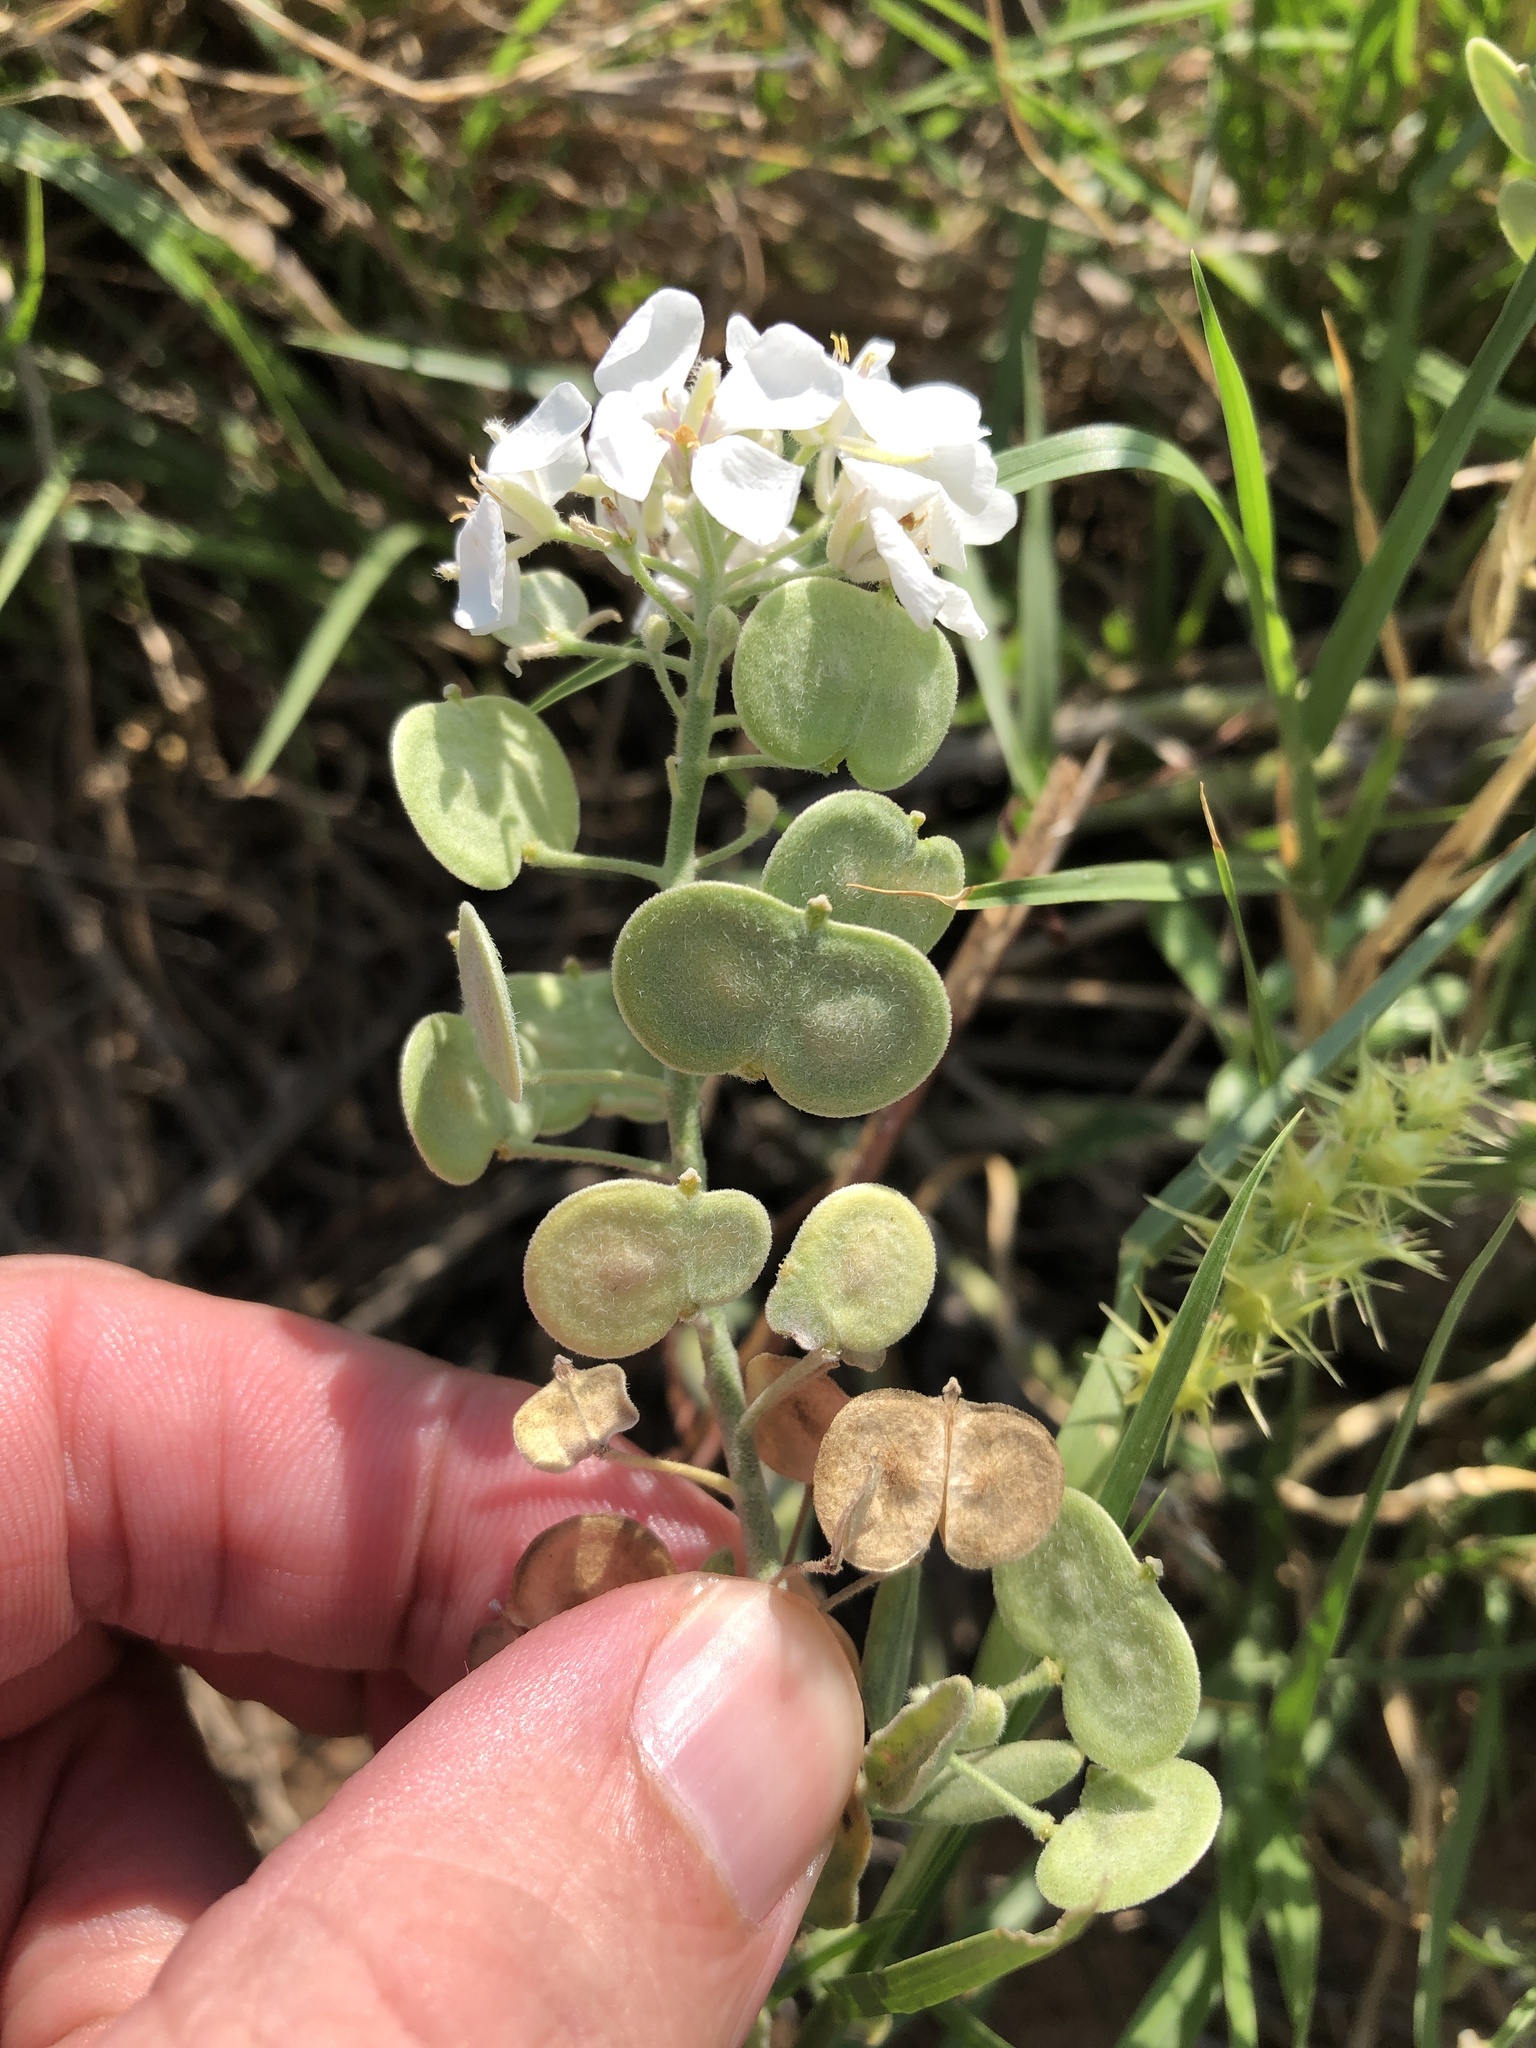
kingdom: Plantae
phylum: Tracheophyta
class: Magnoliopsida
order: Brassicales
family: Brassicaceae
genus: Dimorphocarpa
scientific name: Dimorphocarpa candicans
